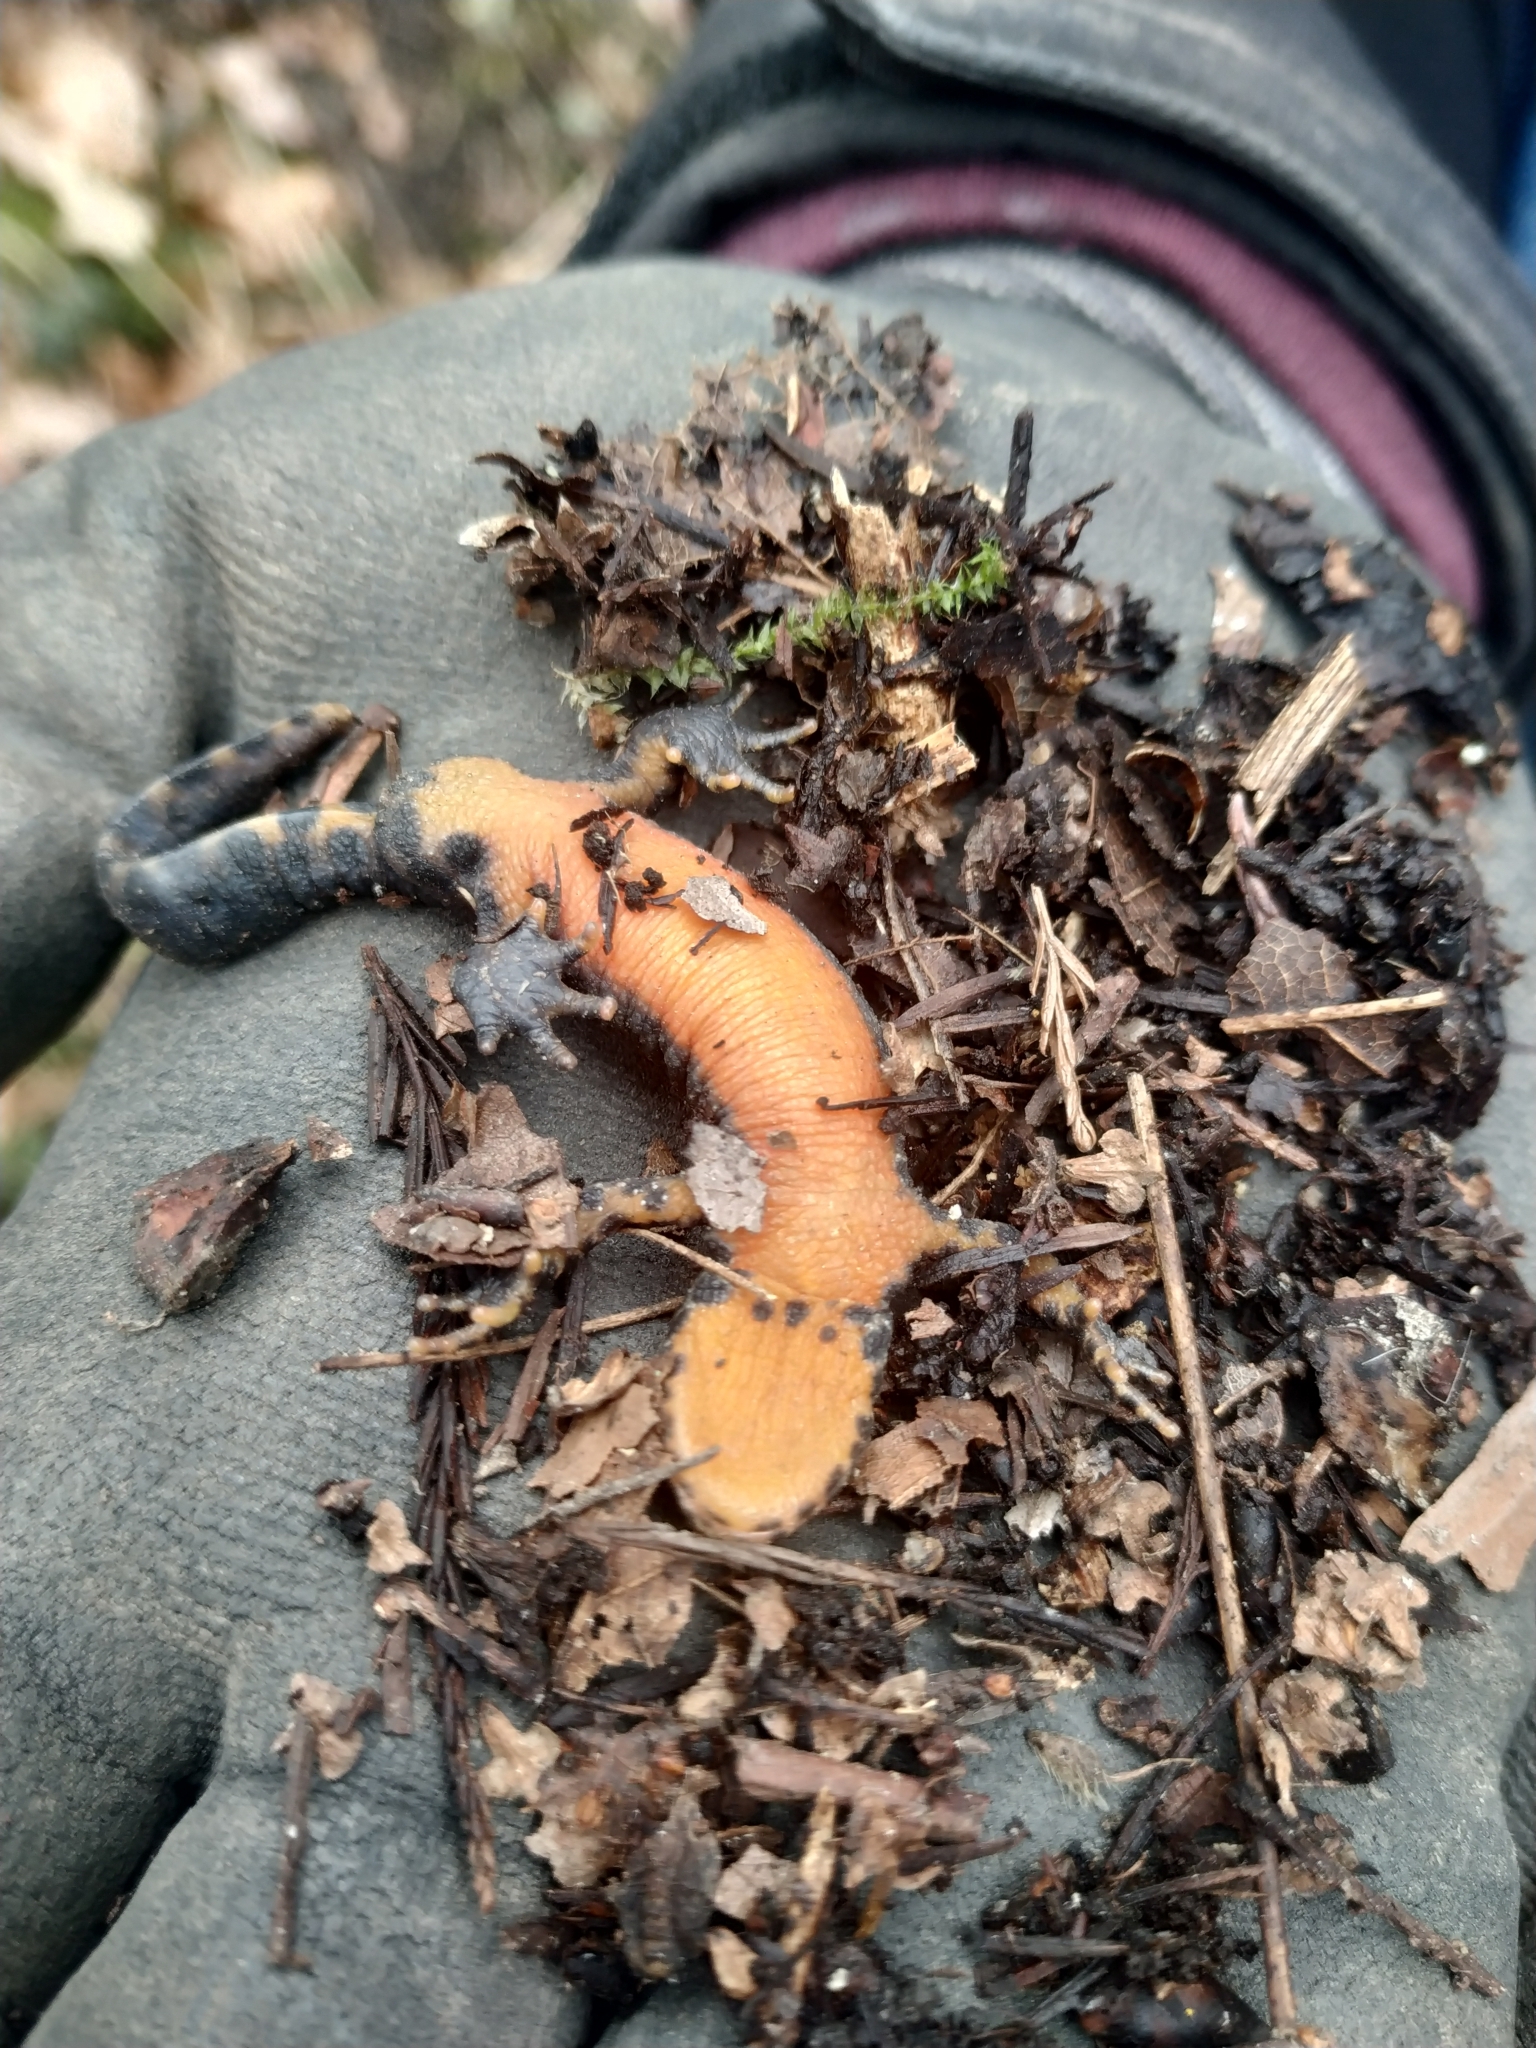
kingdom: Animalia
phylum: Chordata
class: Amphibia
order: Caudata
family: Salamandridae
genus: Ichthyosaura
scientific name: Ichthyosaura alpestris
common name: Alpine newt
